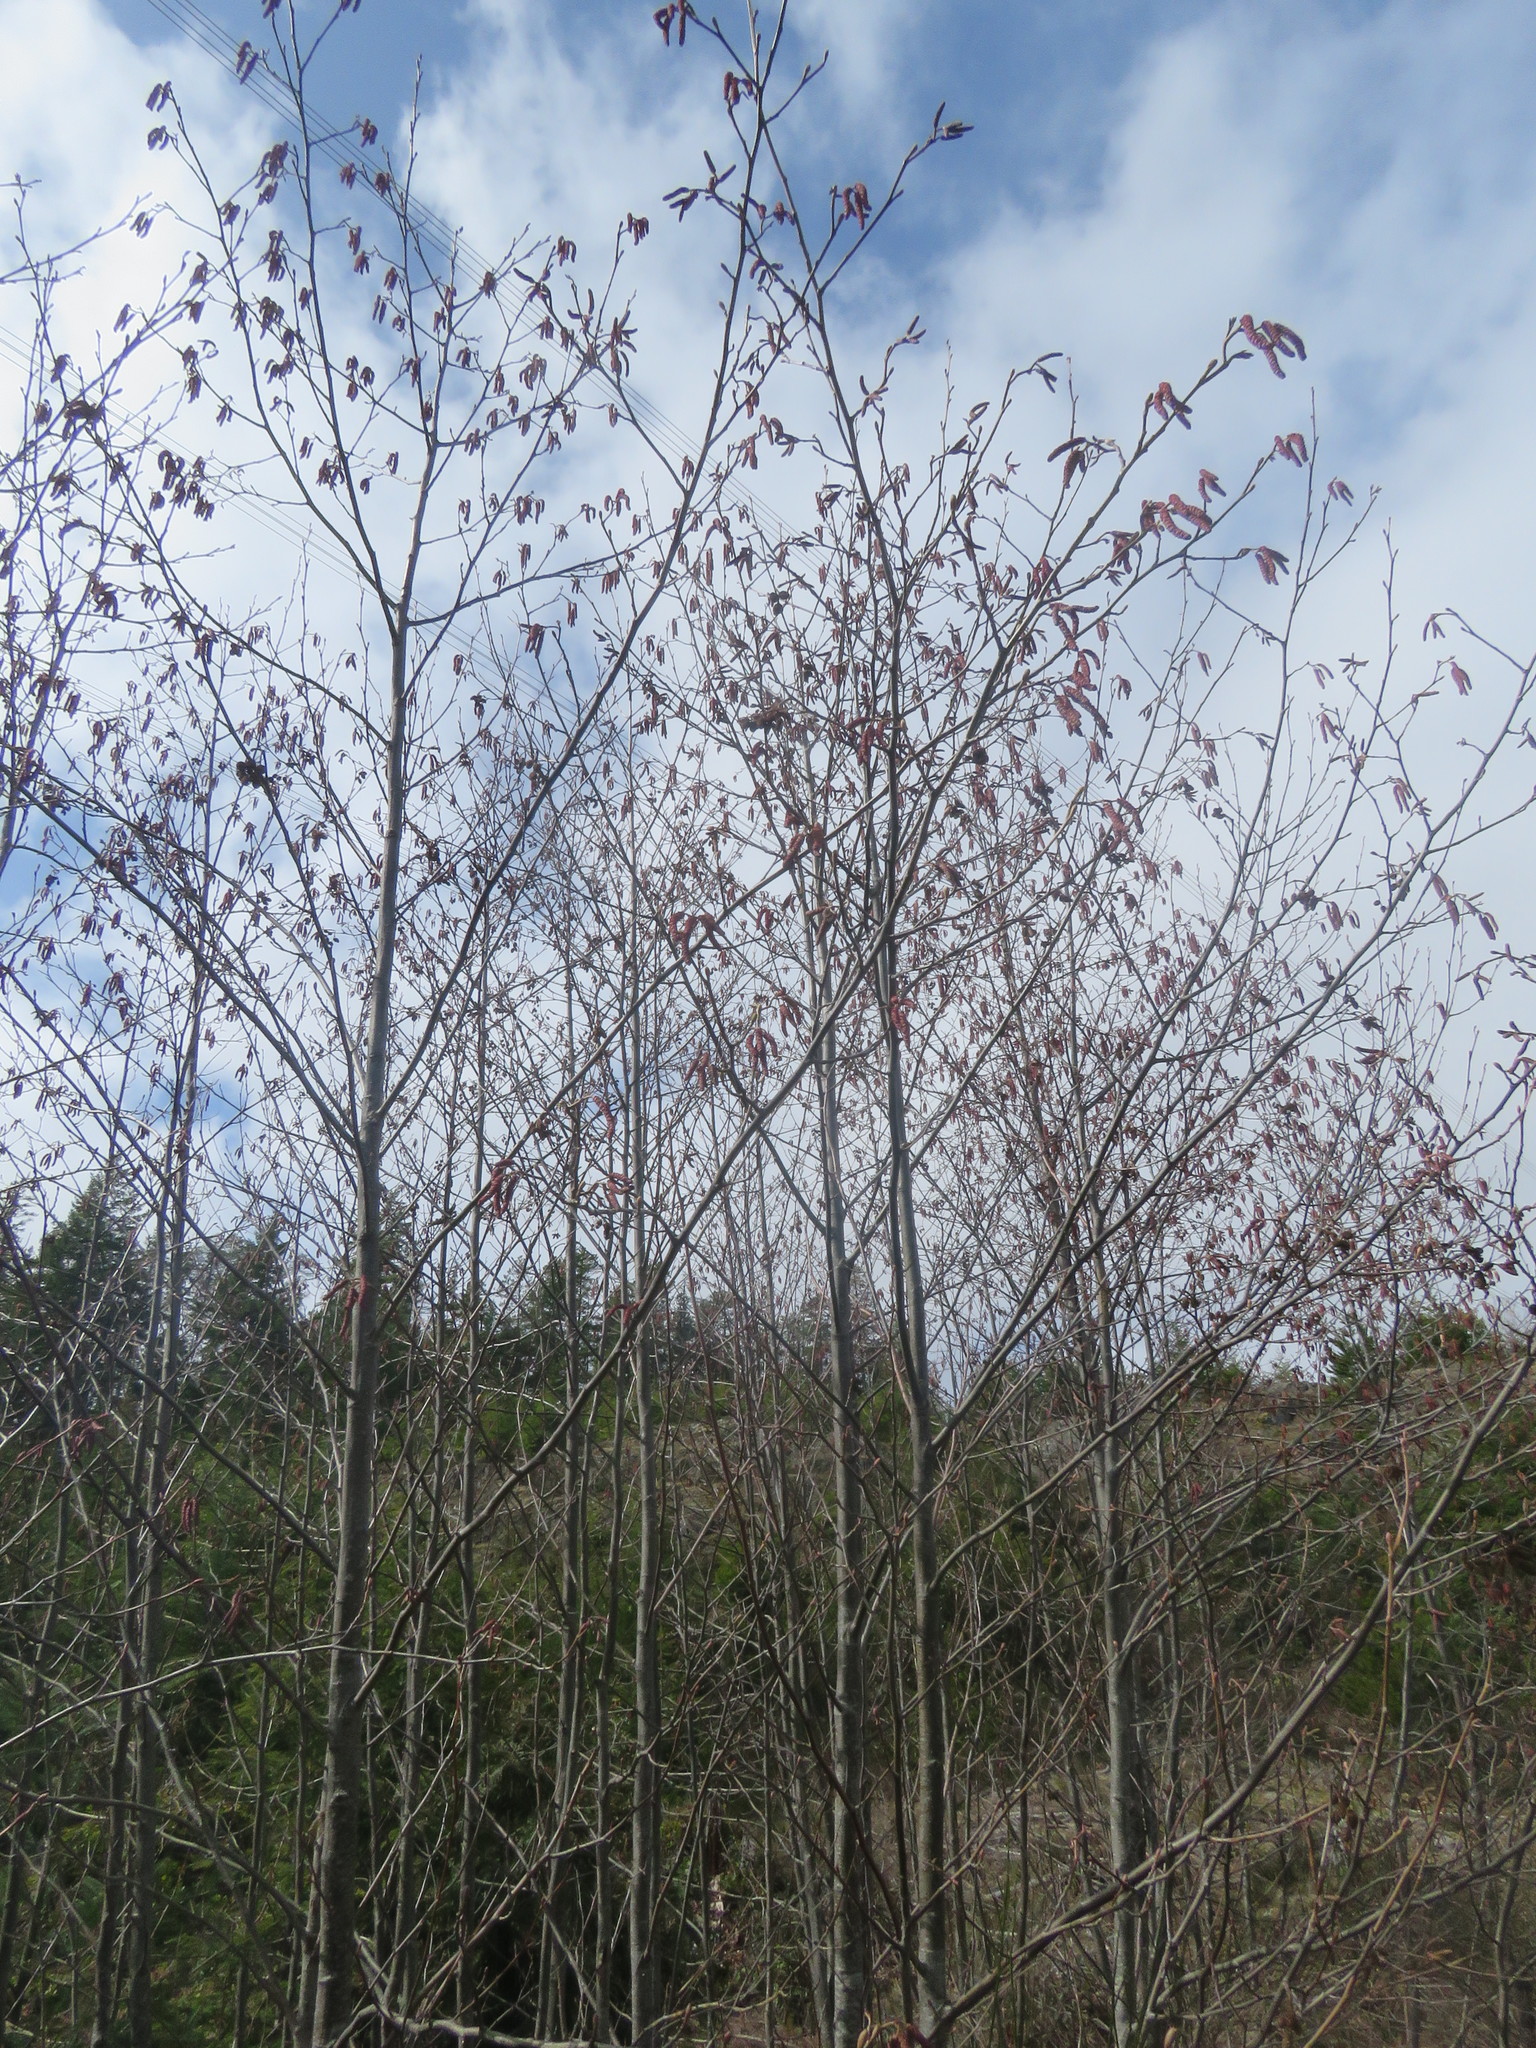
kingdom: Plantae
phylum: Tracheophyta
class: Magnoliopsida
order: Fagales
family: Betulaceae
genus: Alnus
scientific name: Alnus rubra
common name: Red alder
